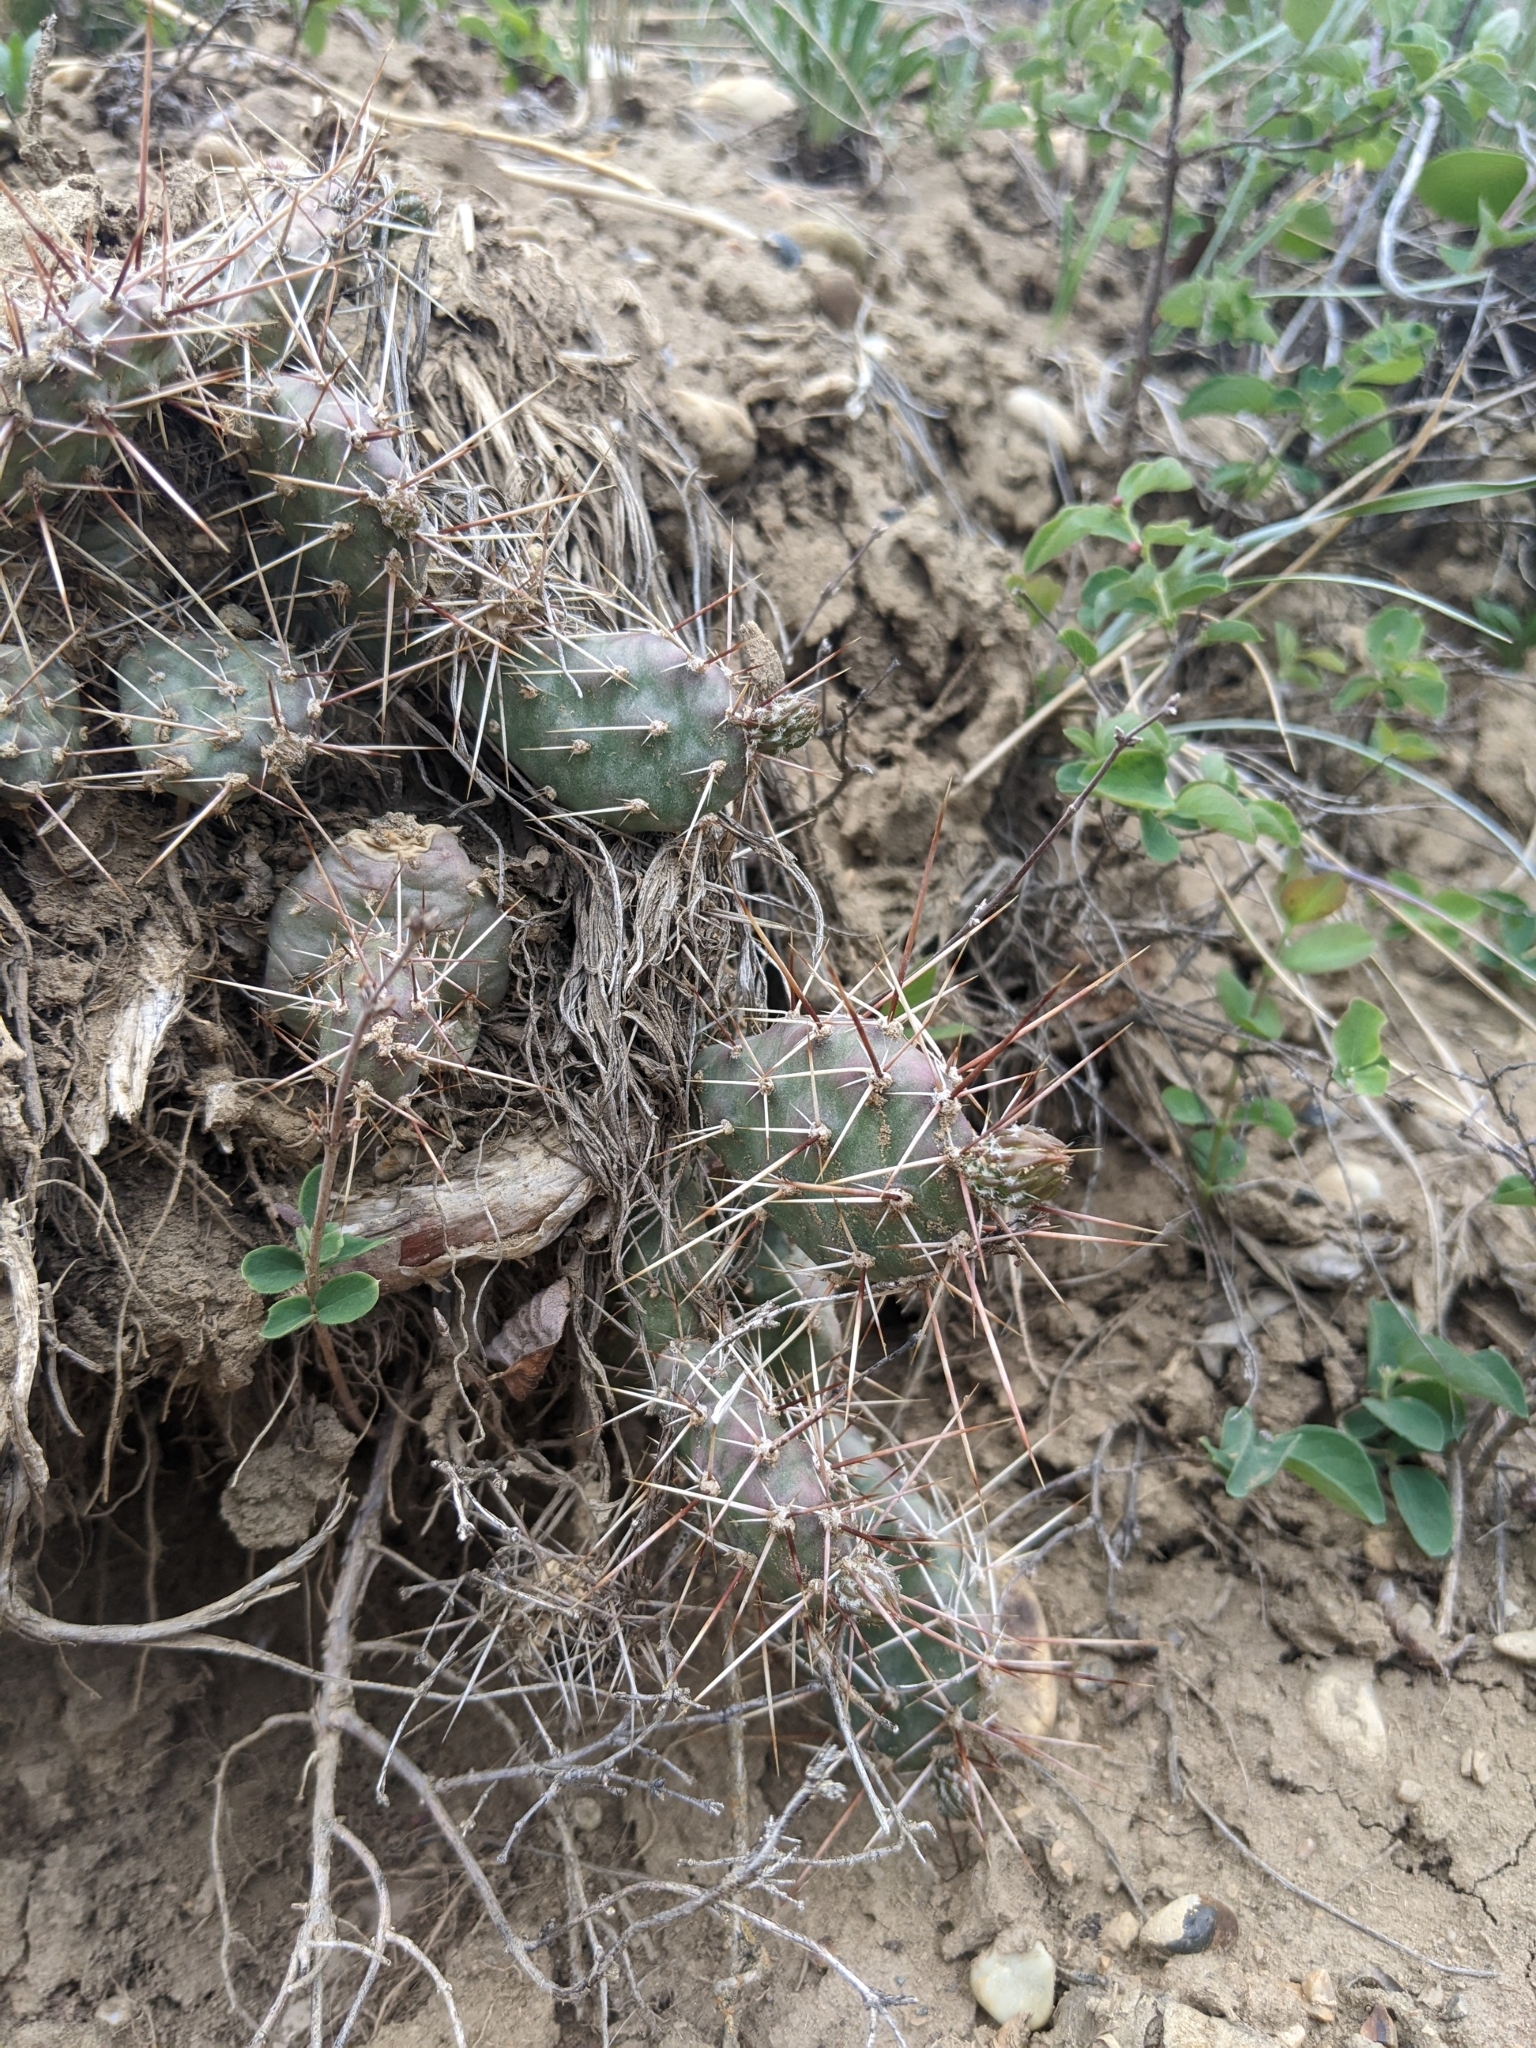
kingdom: Plantae
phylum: Tracheophyta
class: Magnoliopsida
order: Caryophyllales
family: Cactaceae
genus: Opuntia
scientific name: Opuntia fragilis
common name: Brittle cactus
